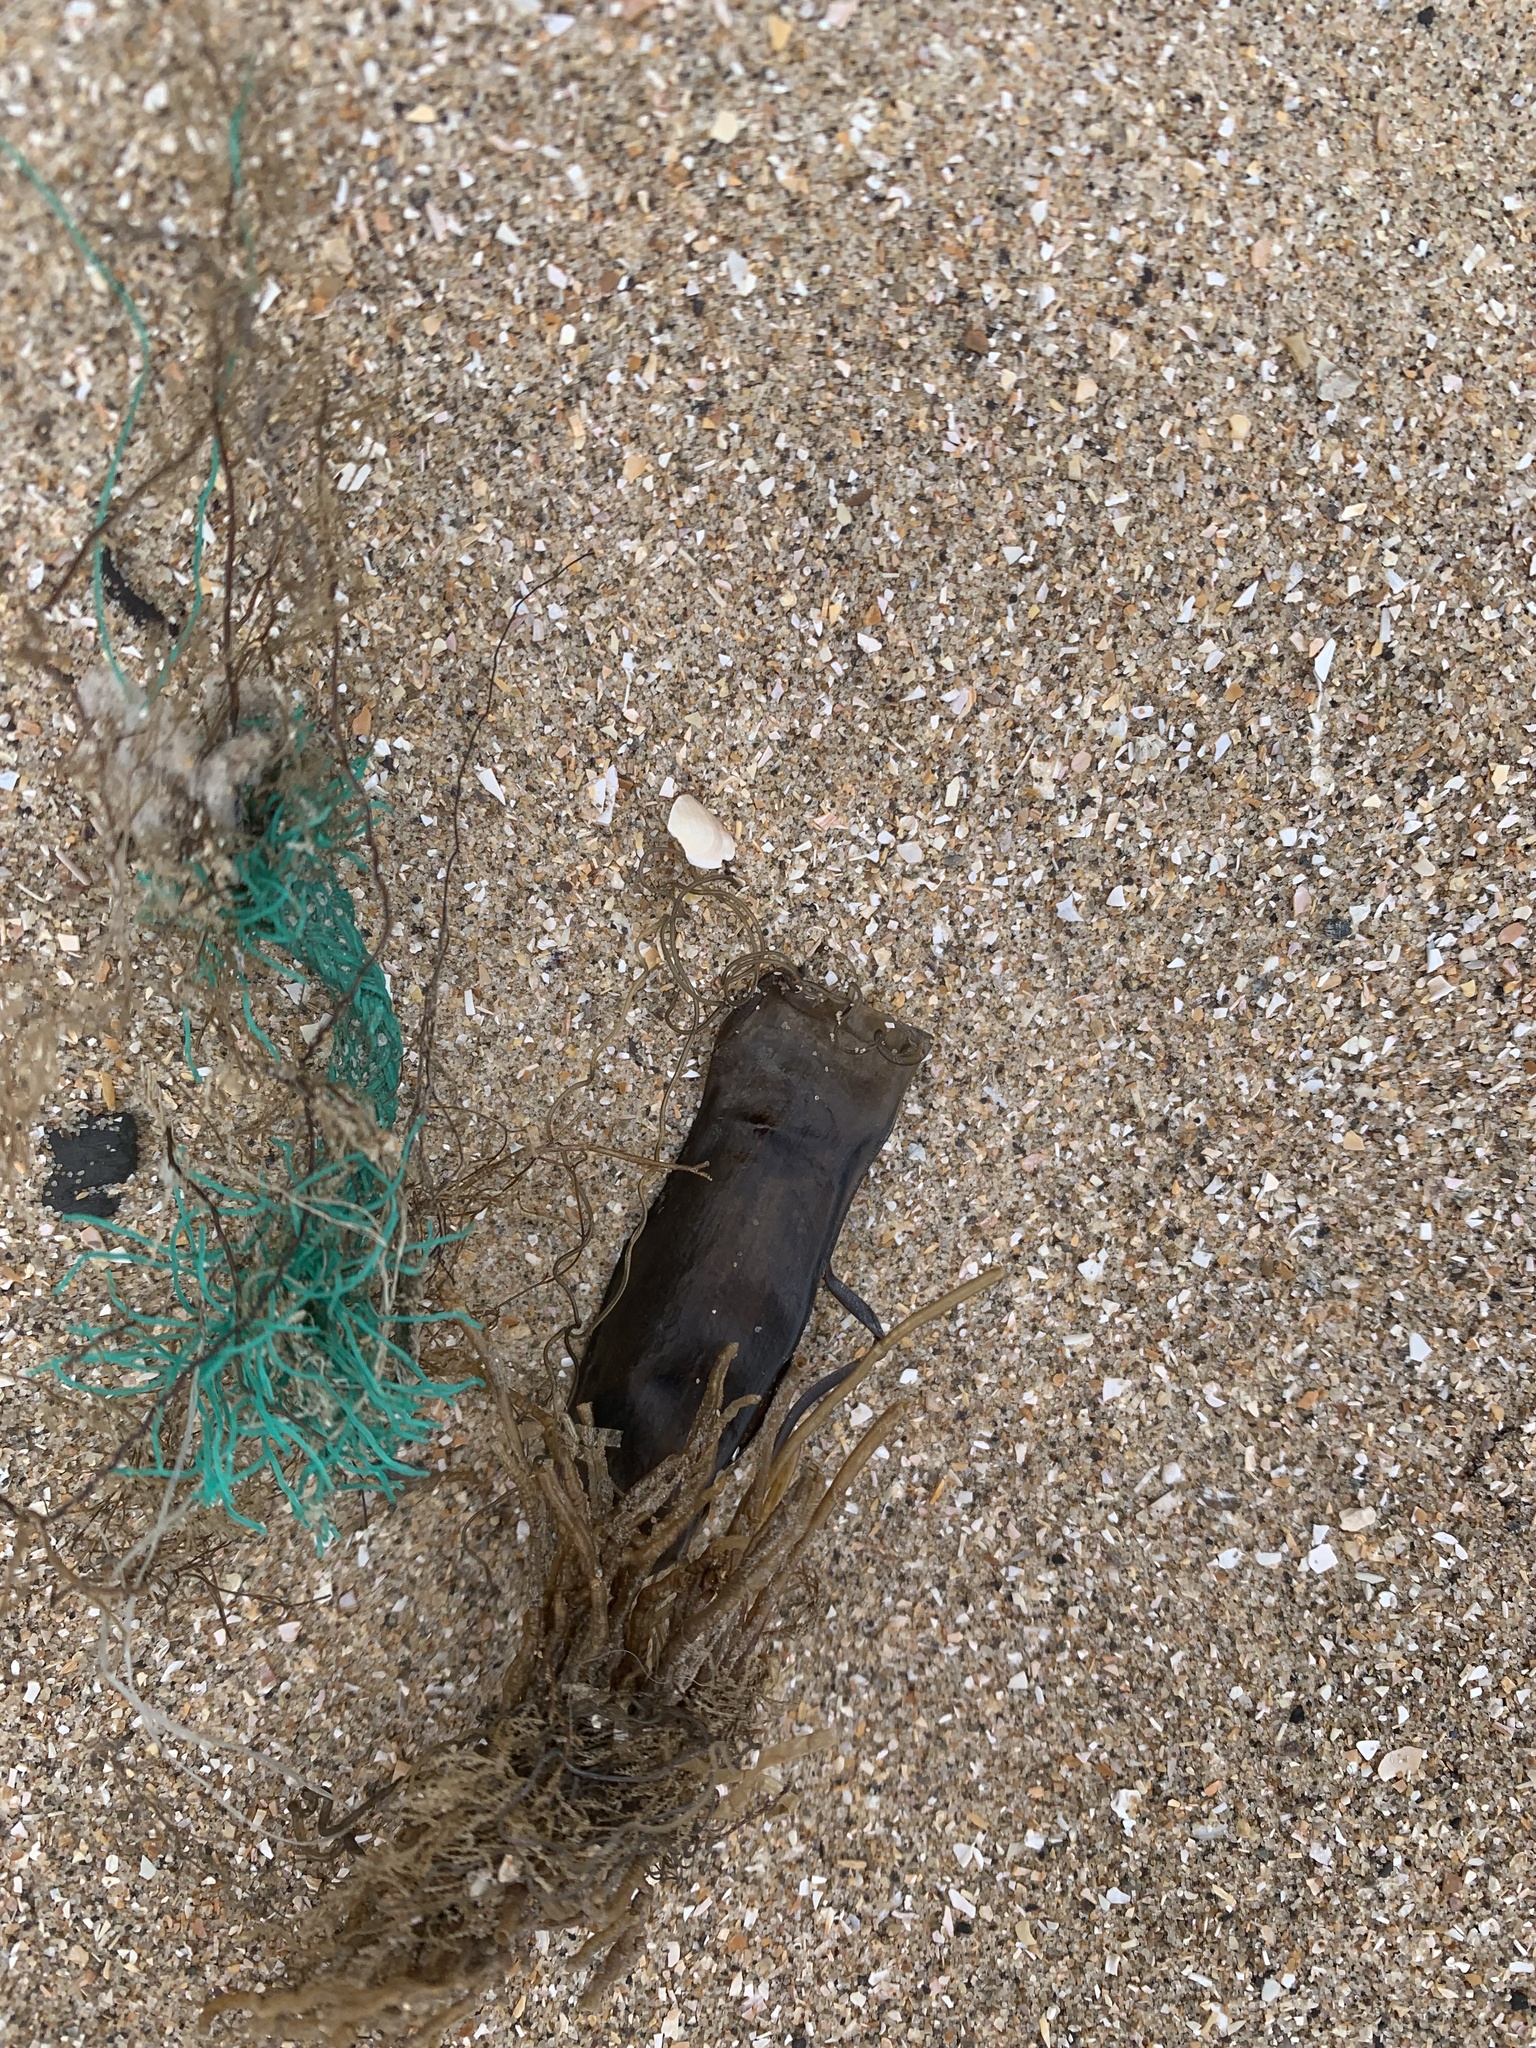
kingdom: Animalia
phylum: Chordata
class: Elasmobranchii
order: Carcharhiniformes
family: Scyliorhinidae
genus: Scyliorhinus
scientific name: Scyliorhinus canicula
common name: Lesser spotted dogfish
